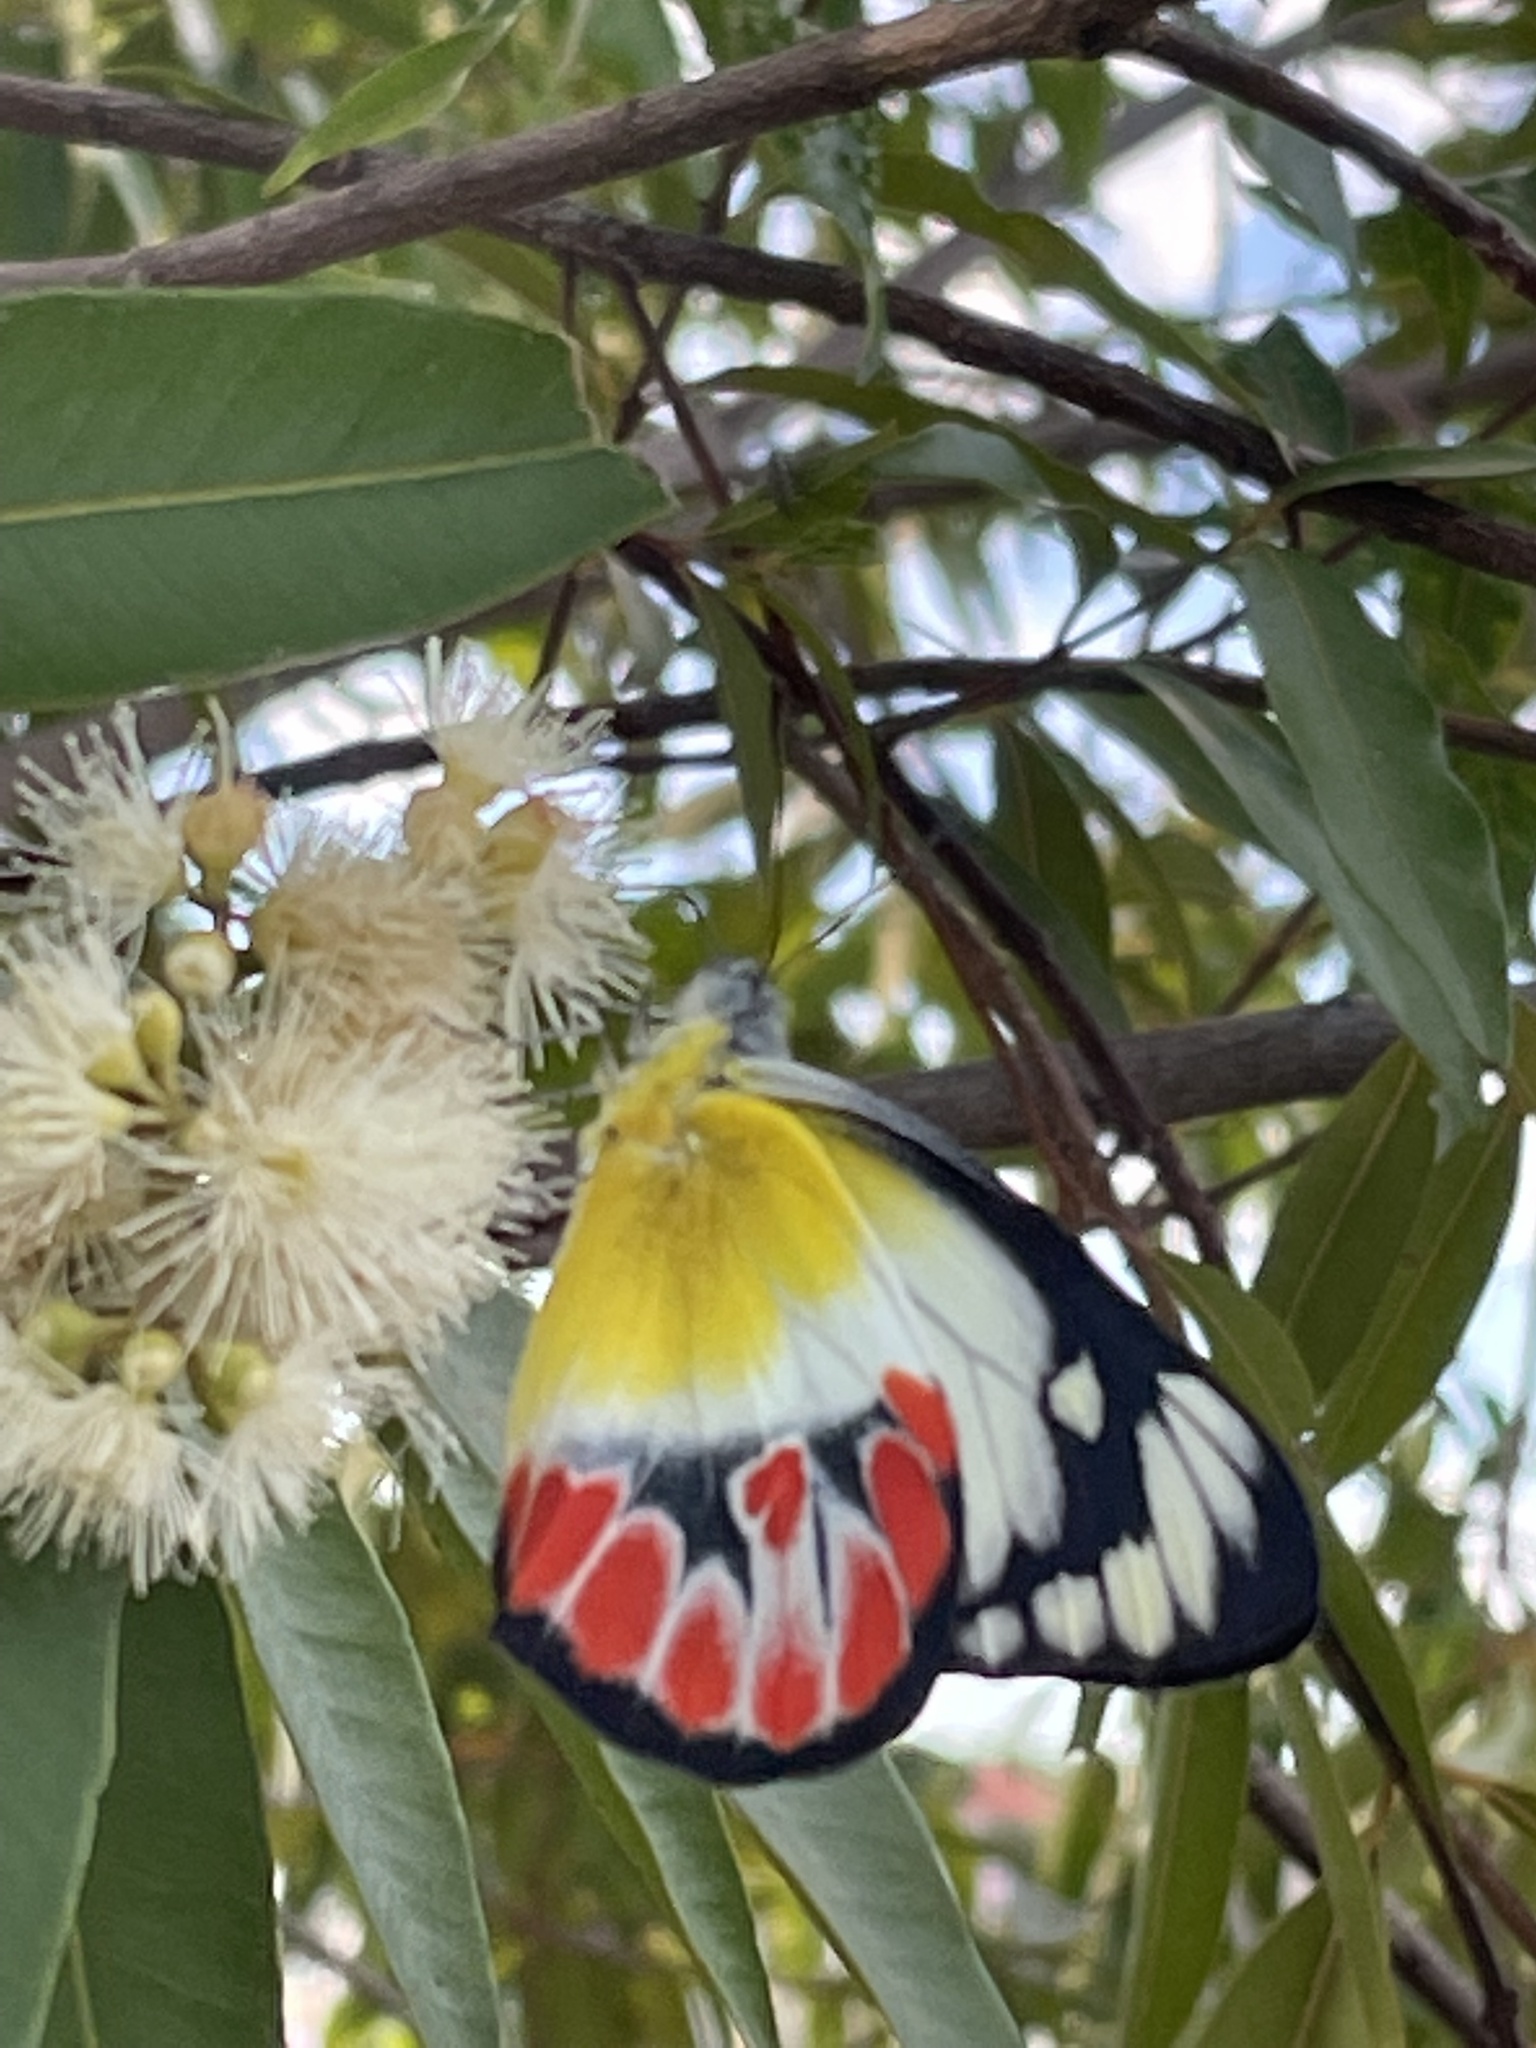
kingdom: Animalia
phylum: Arthropoda
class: Insecta
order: Lepidoptera
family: Pieridae
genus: Delias
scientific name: Delias argenthona
